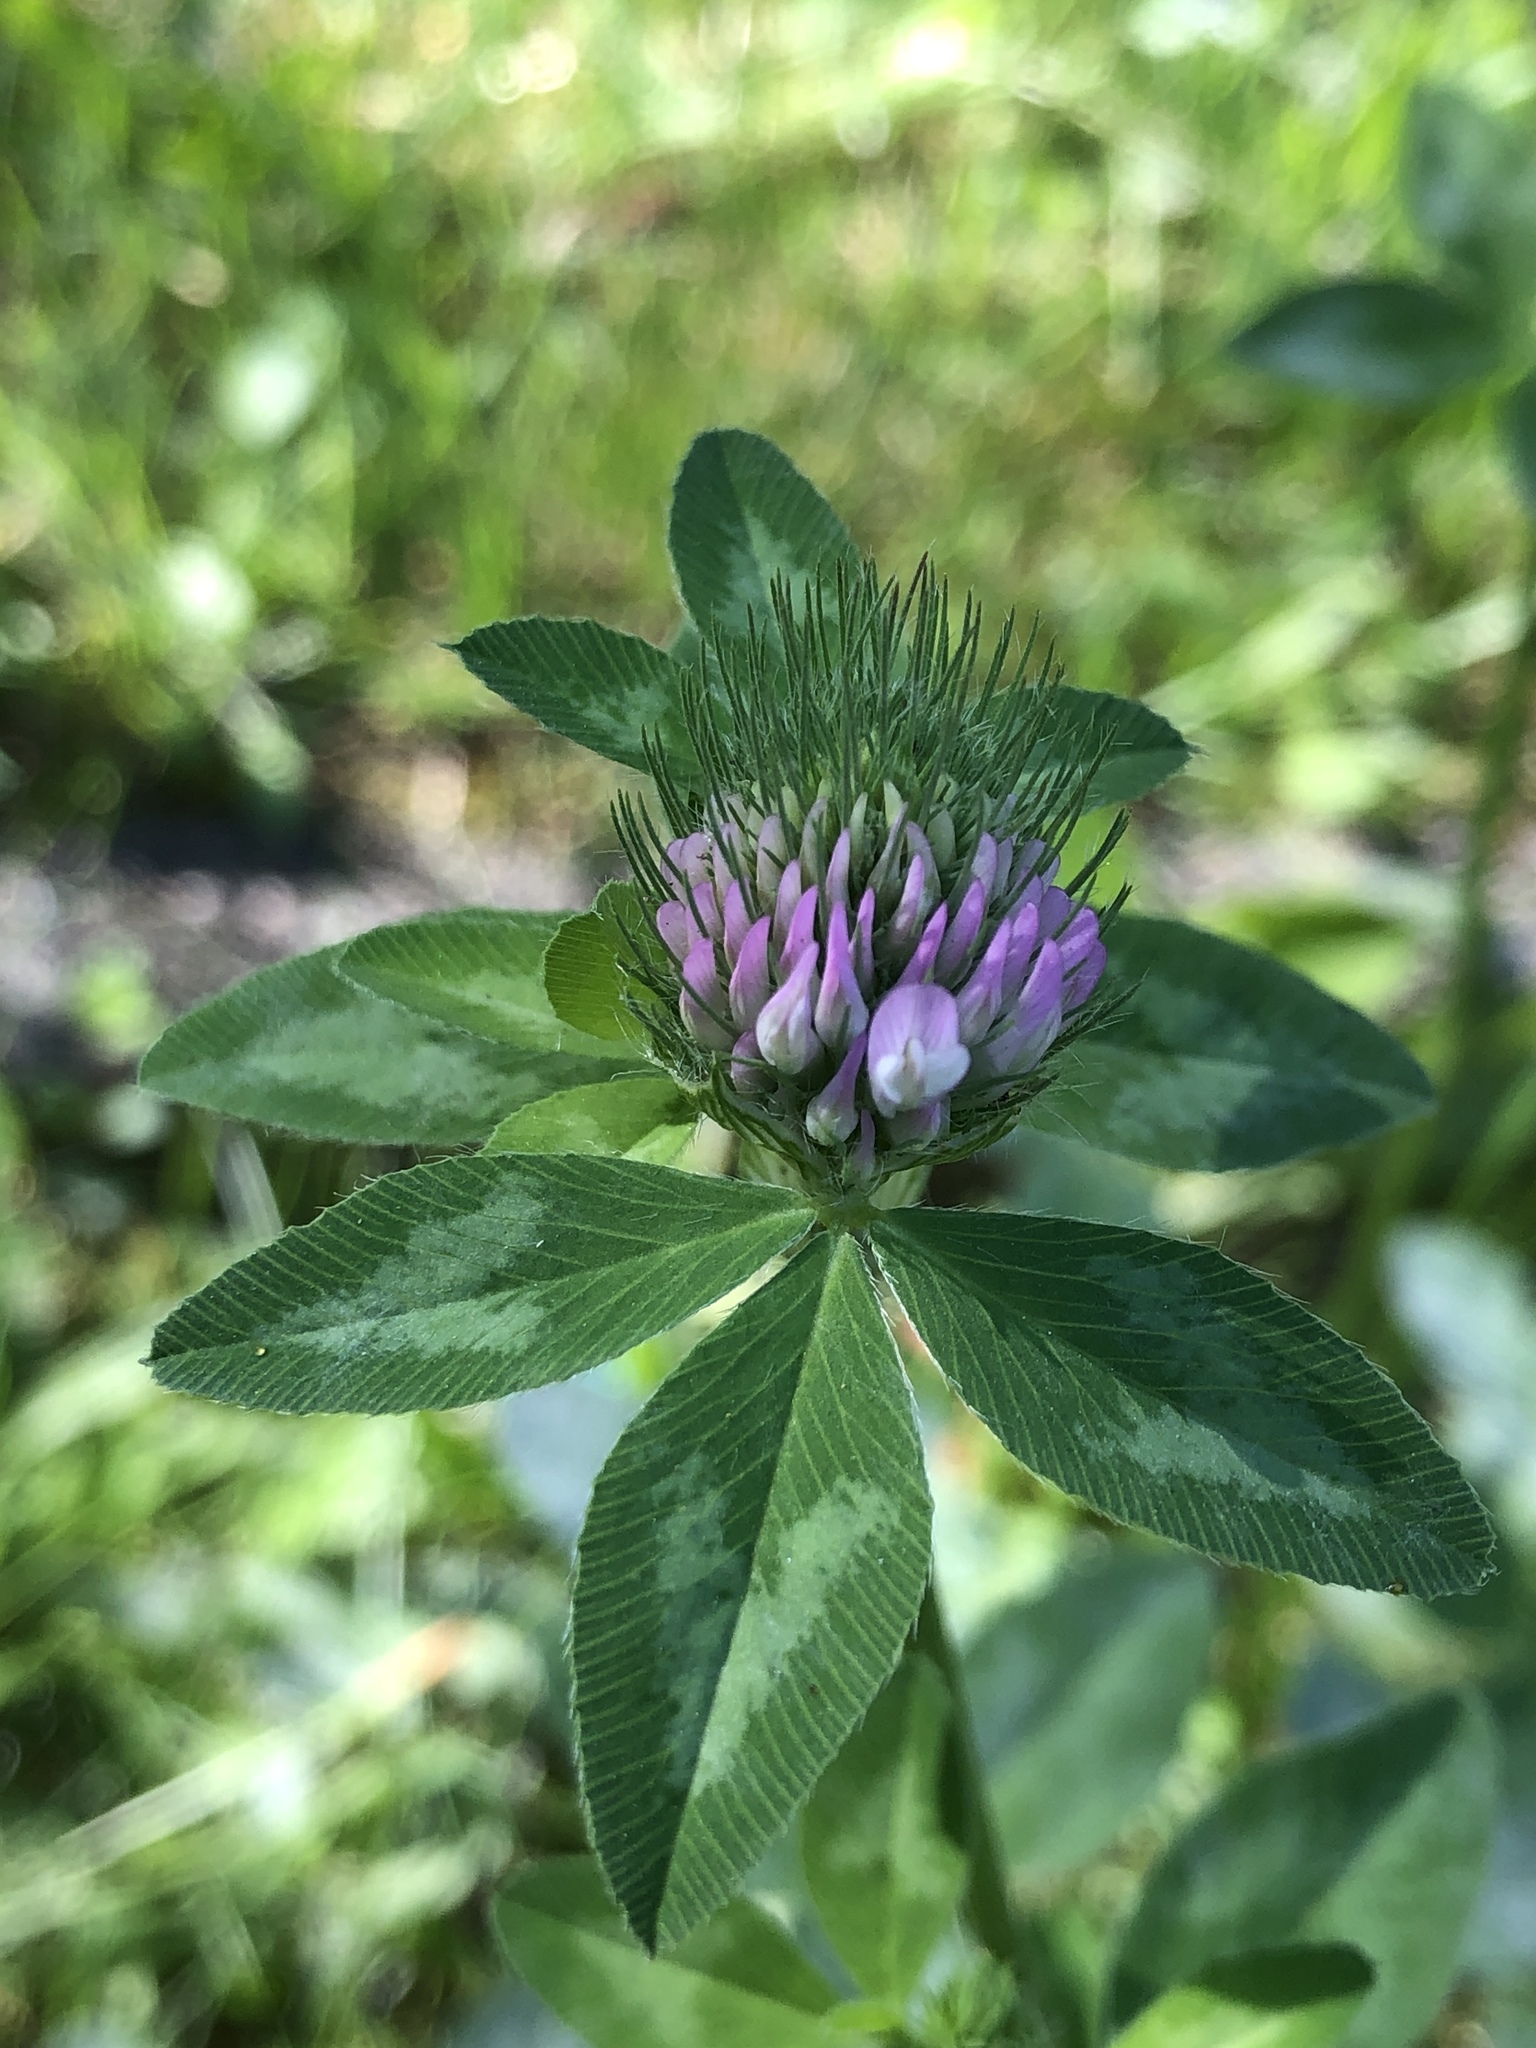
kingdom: Plantae
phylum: Tracheophyta
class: Magnoliopsida
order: Fabales
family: Fabaceae
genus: Trifolium
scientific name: Trifolium pratense
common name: Red clover
